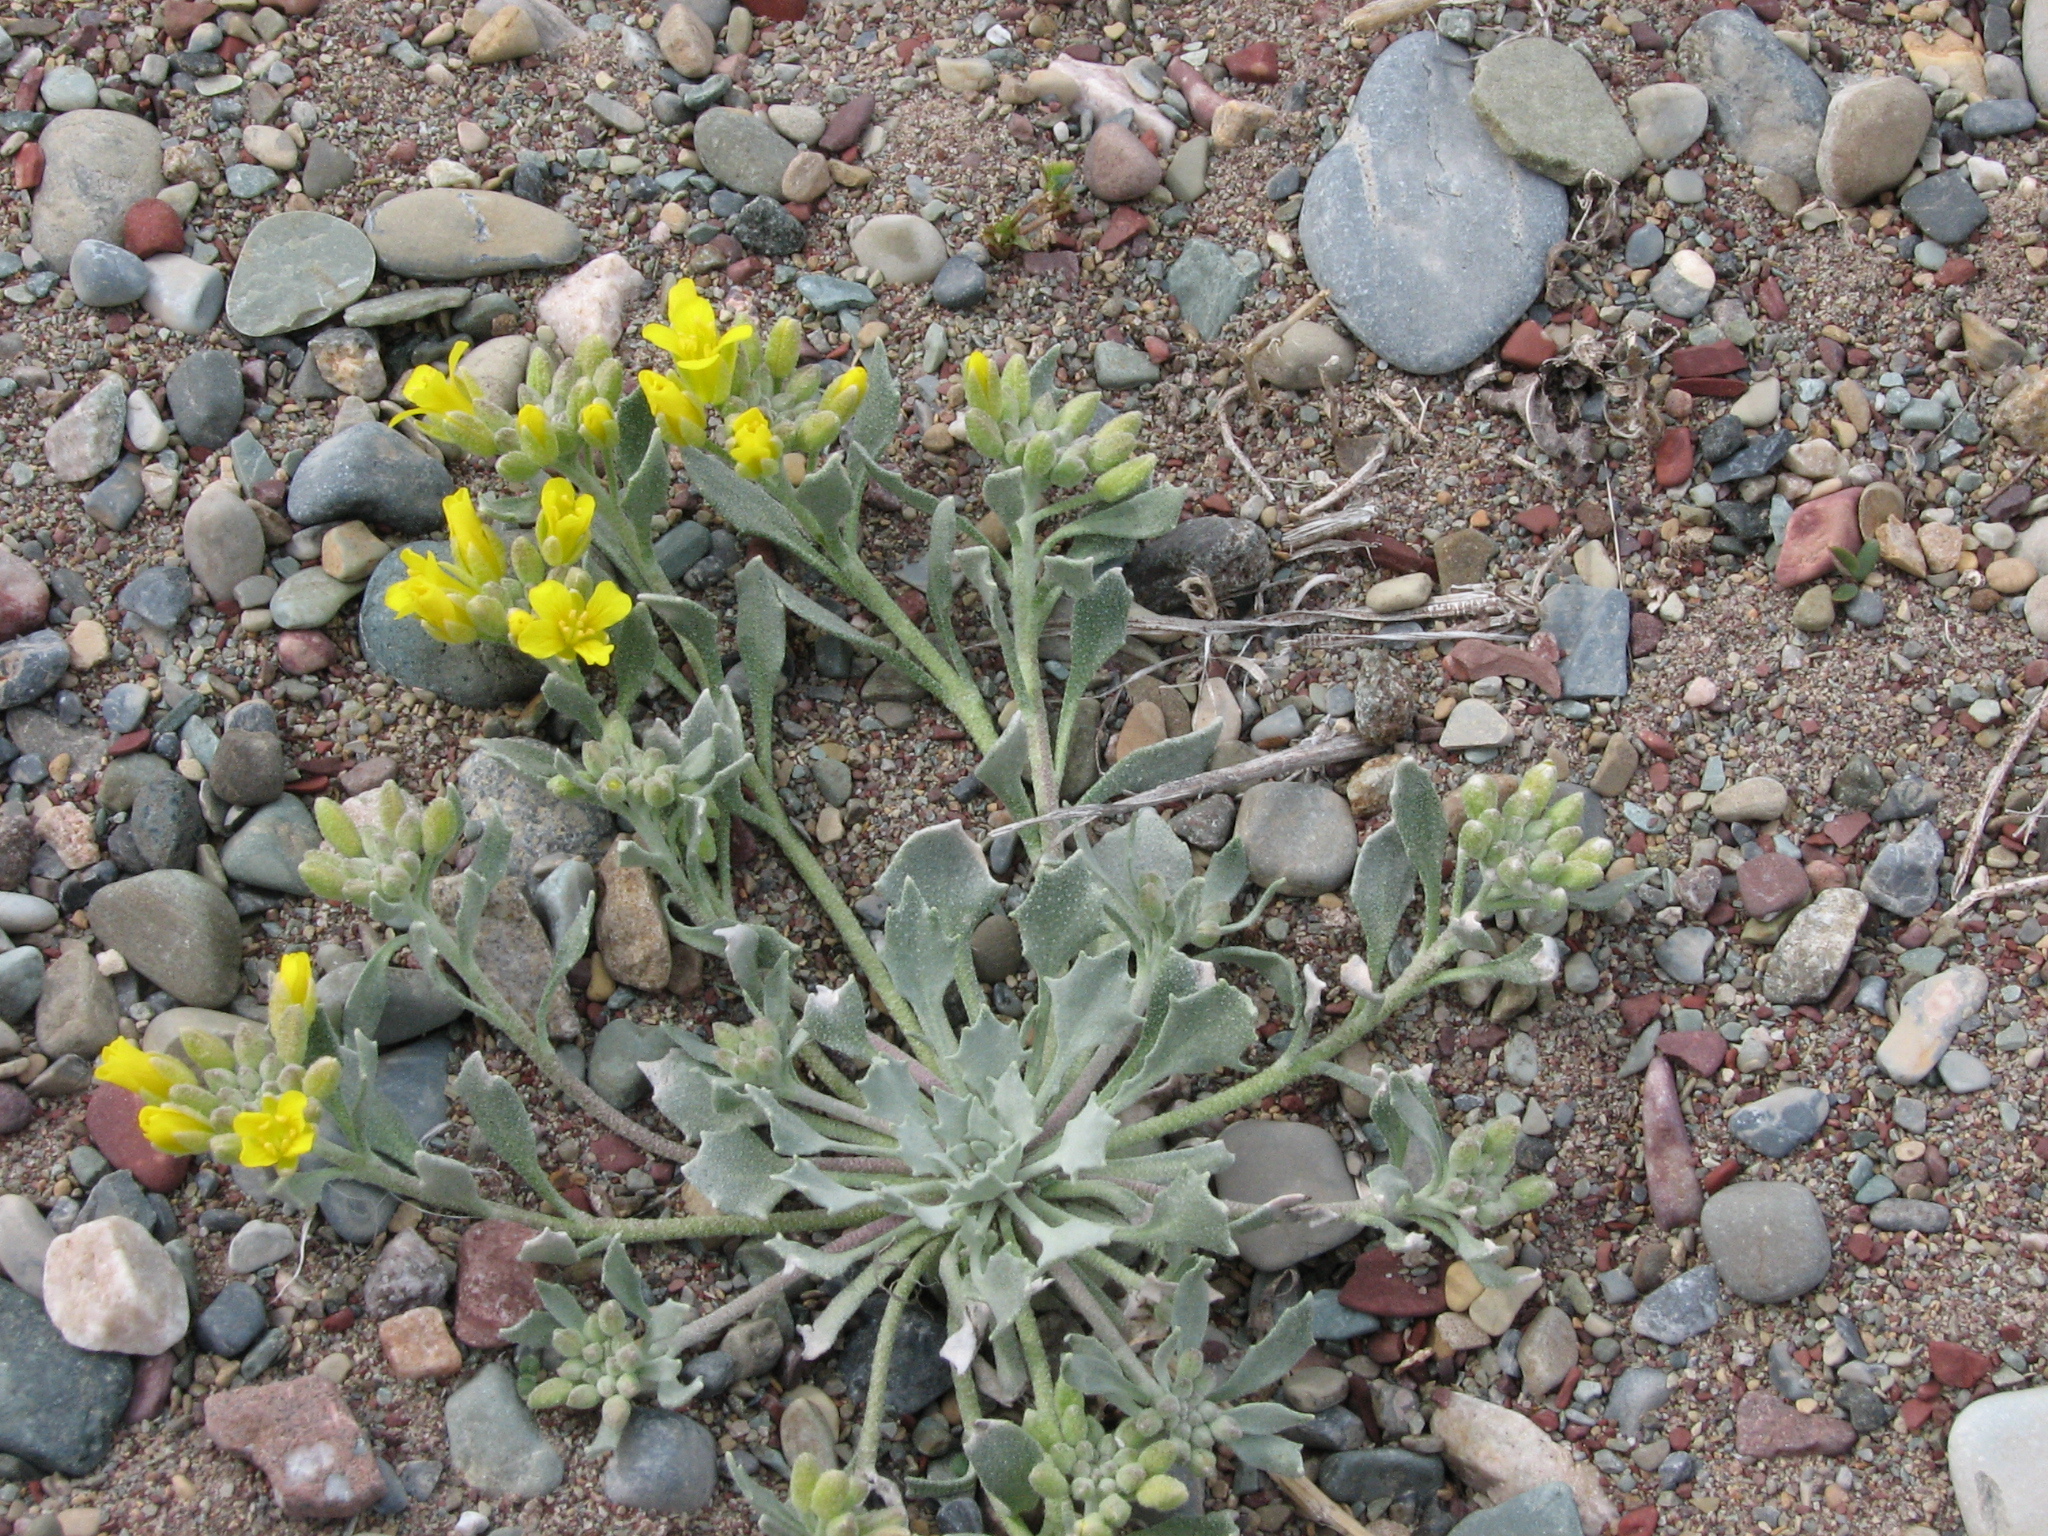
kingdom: Plantae
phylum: Tracheophyta
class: Magnoliopsida
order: Brassicales
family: Brassicaceae
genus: Physaria
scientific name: Physaria didymocarpa
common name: Common twinpod
